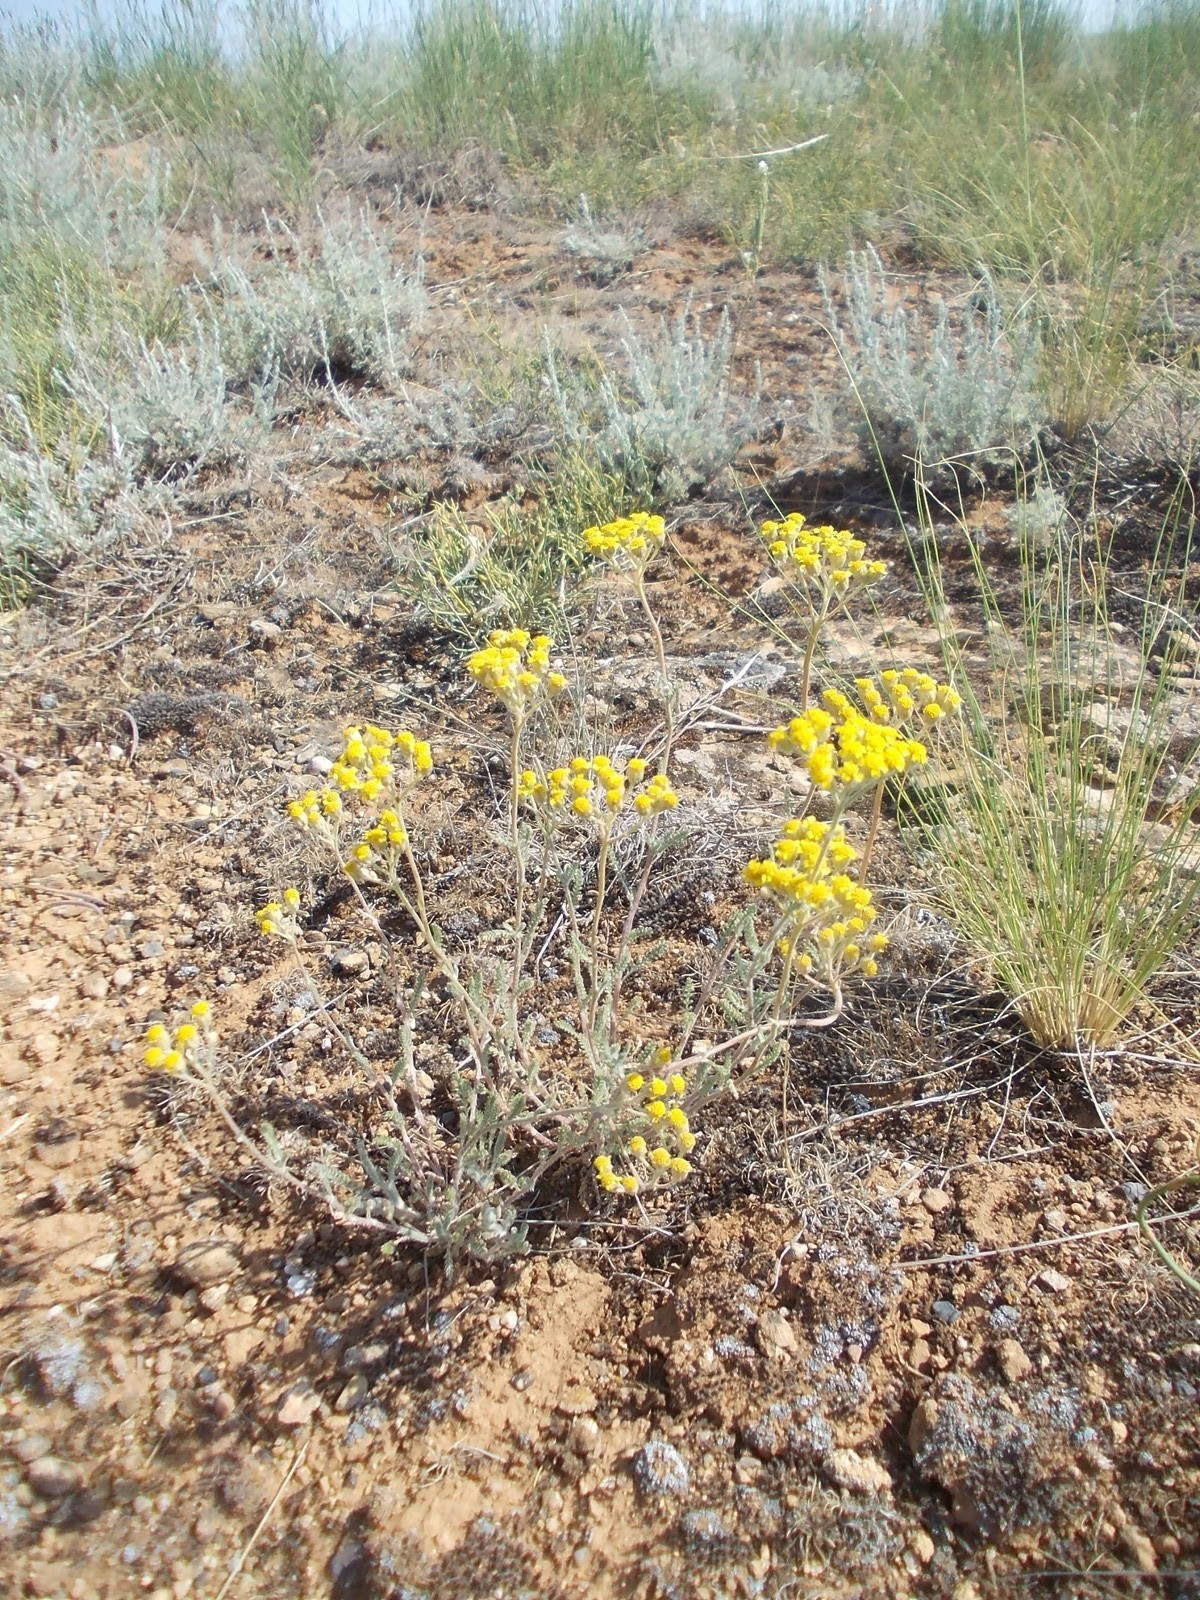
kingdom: Plantae
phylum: Tracheophyta
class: Magnoliopsida
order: Asterales
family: Asteraceae
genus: Achillea
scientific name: Achillea leptophylla
